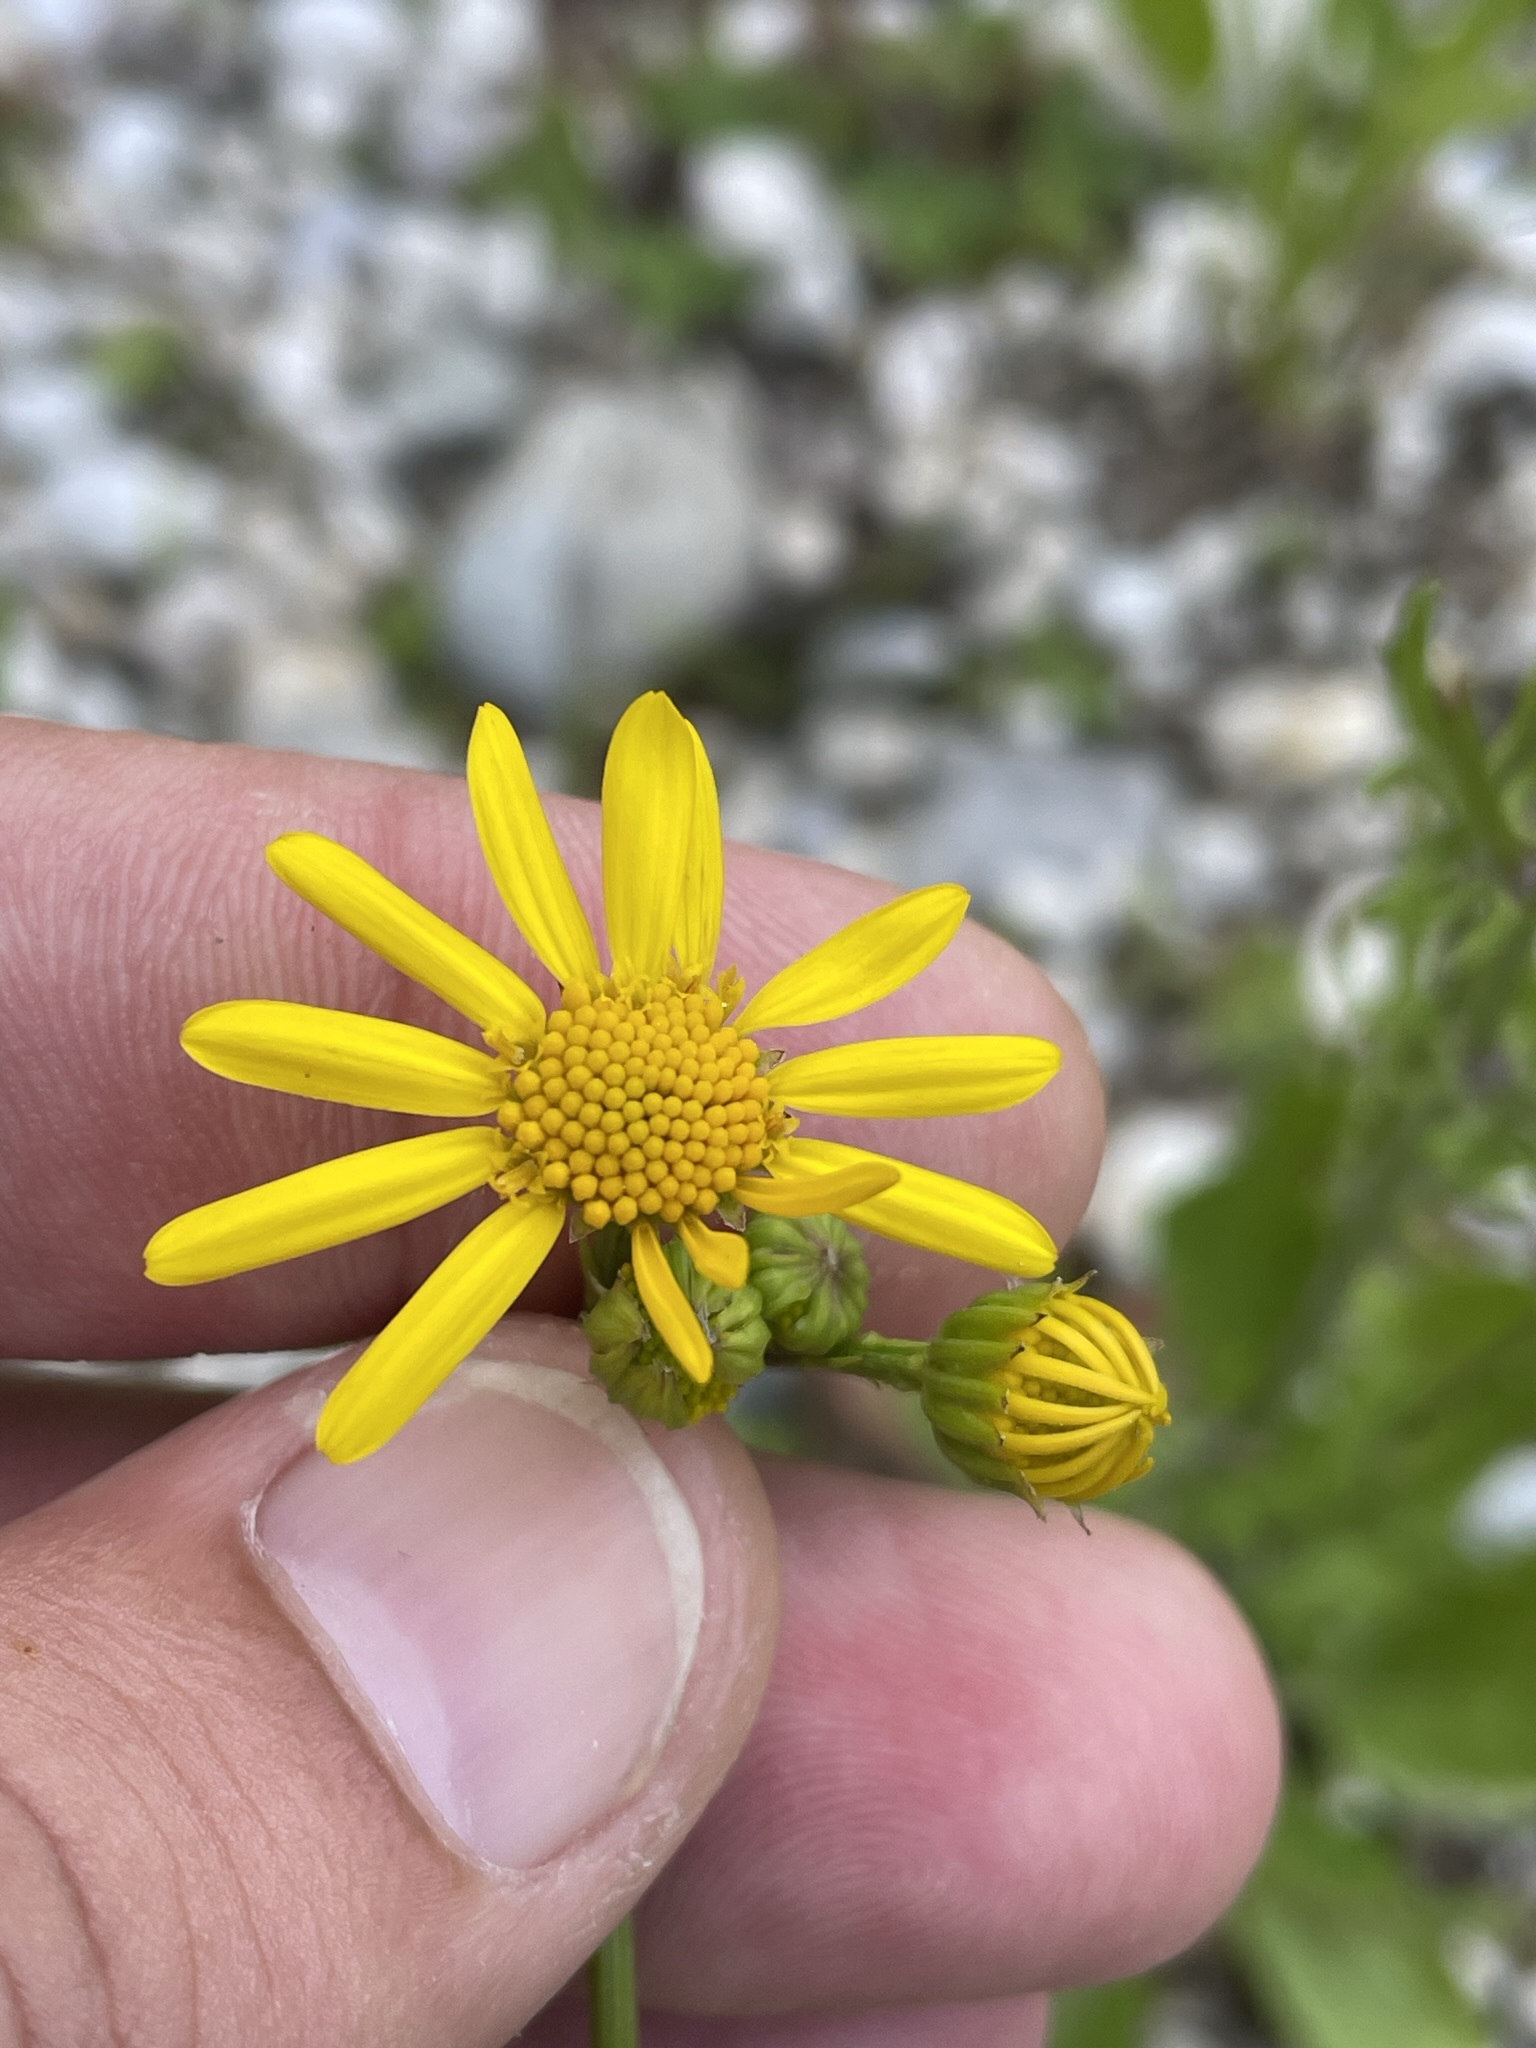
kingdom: Plantae
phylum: Tracheophyta
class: Magnoliopsida
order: Asterales
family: Asteraceae
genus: Jacobaea
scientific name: Jacobaea aquatica
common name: Water ragwort
